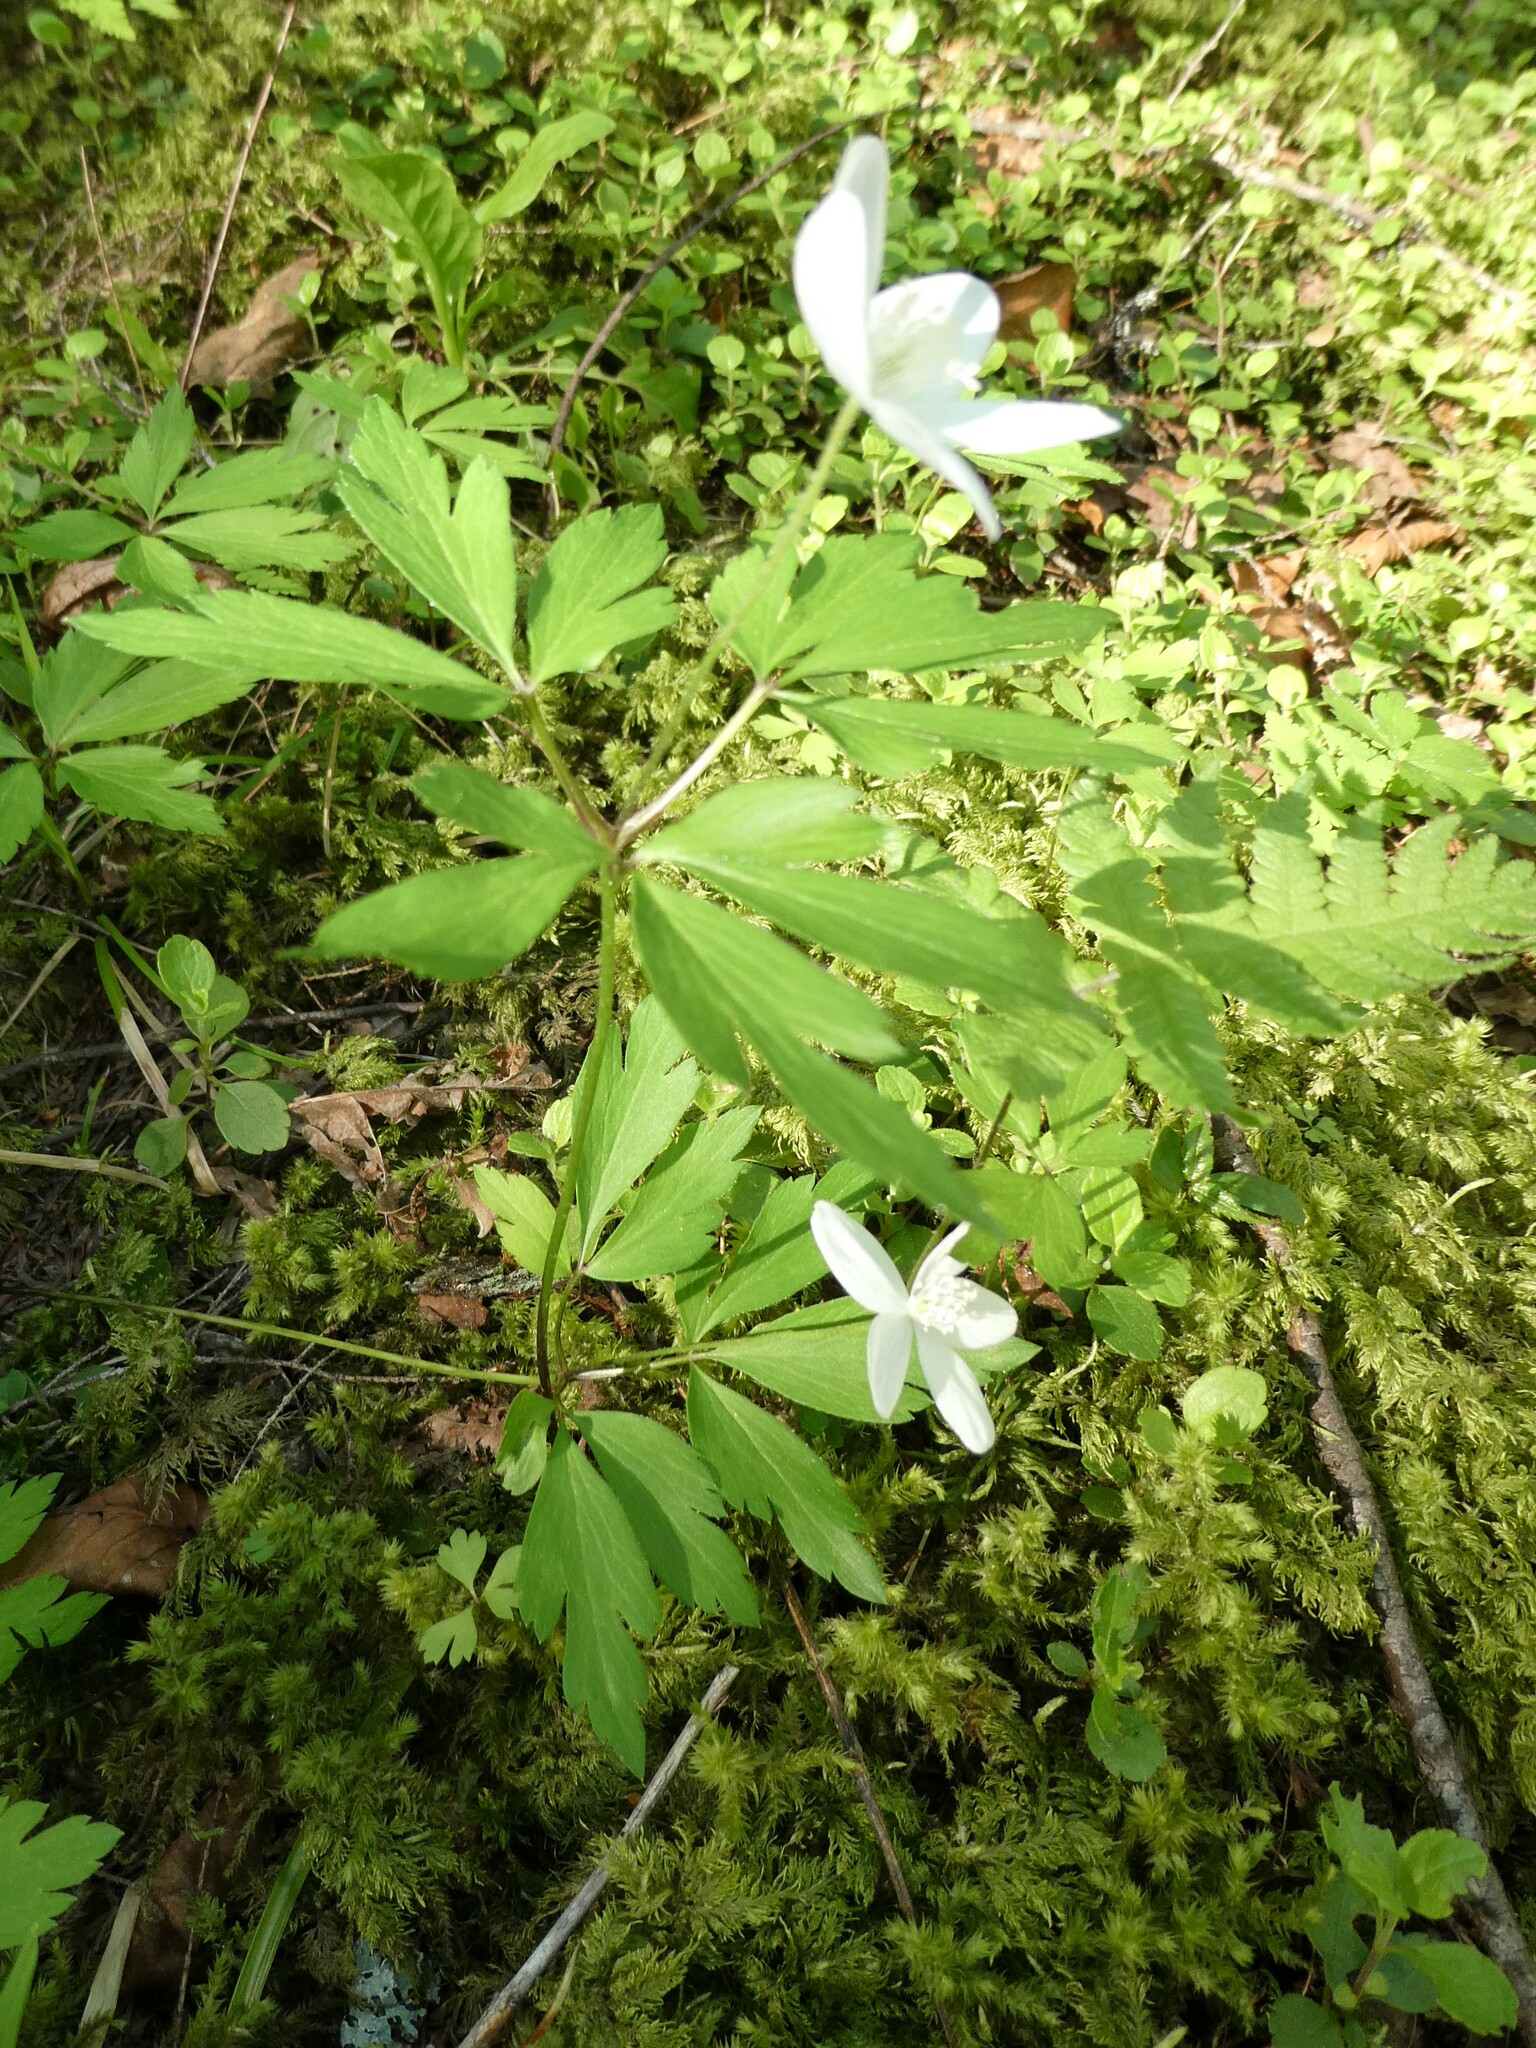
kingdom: Plantae
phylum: Tracheophyta
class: Magnoliopsida
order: Ranunculales
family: Ranunculaceae
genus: Anemone
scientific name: Anemone quinquefolia
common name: Wood anemone
